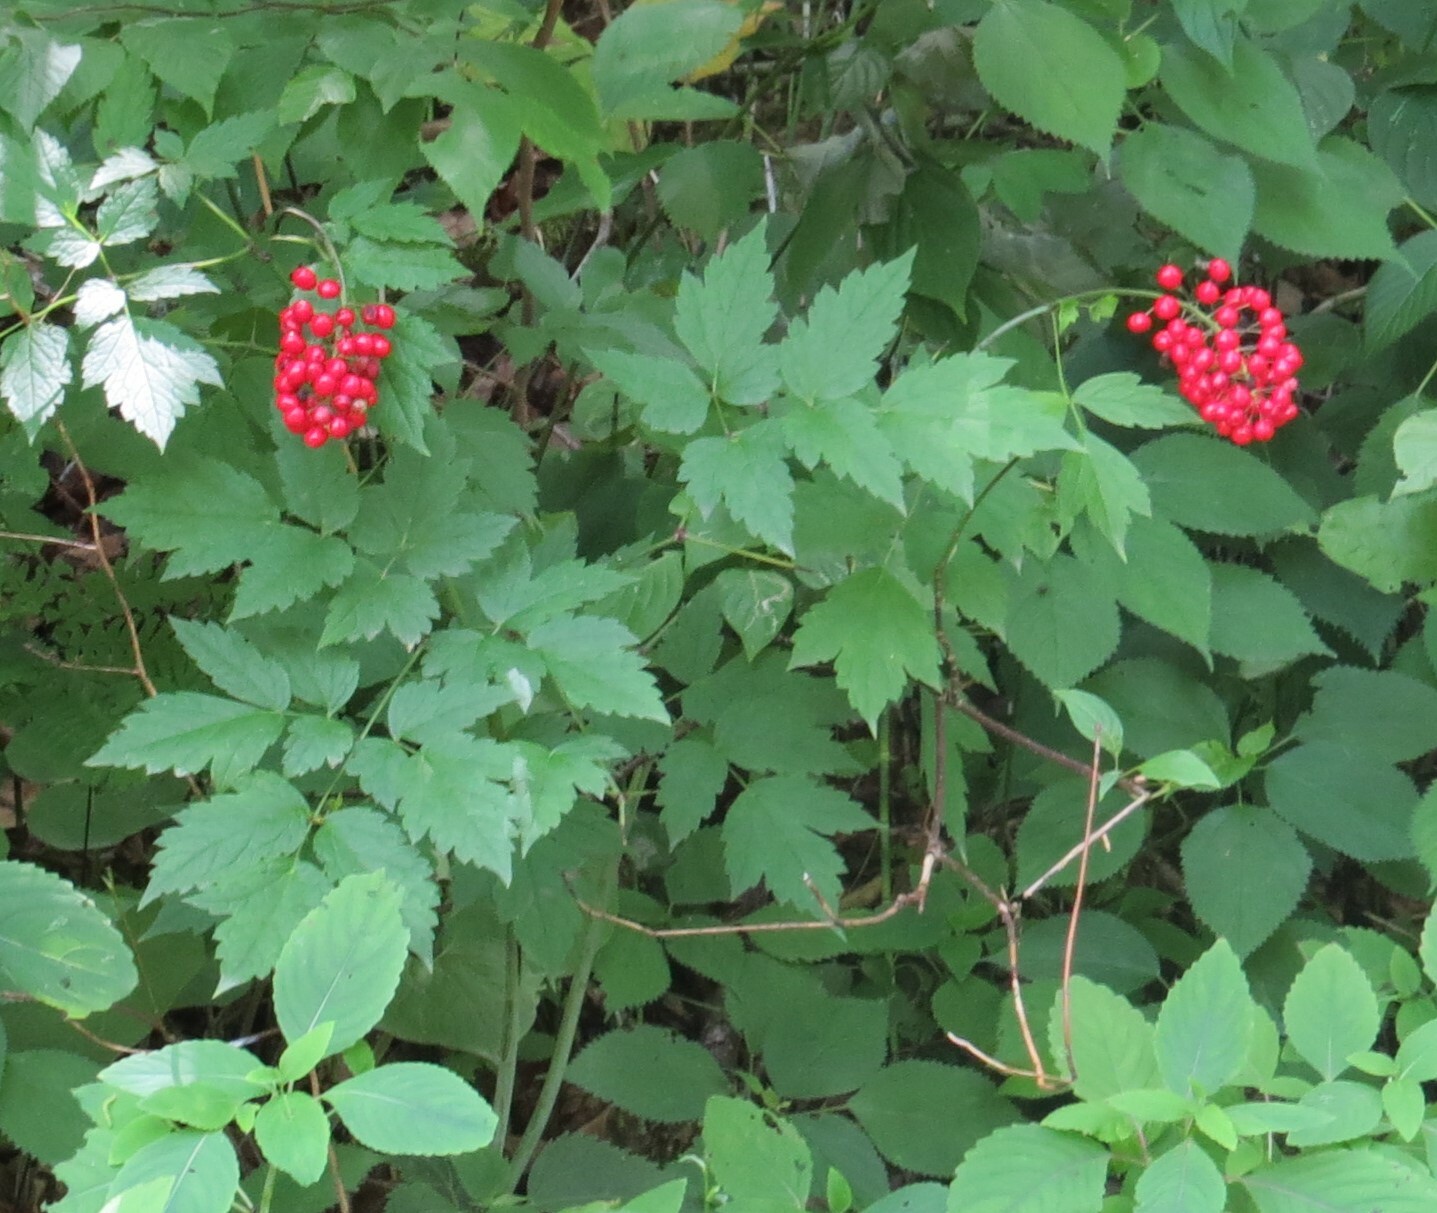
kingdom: Plantae
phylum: Tracheophyta
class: Magnoliopsida
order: Ranunculales
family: Ranunculaceae
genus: Actaea
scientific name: Actaea rubra
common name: Red baneberry
